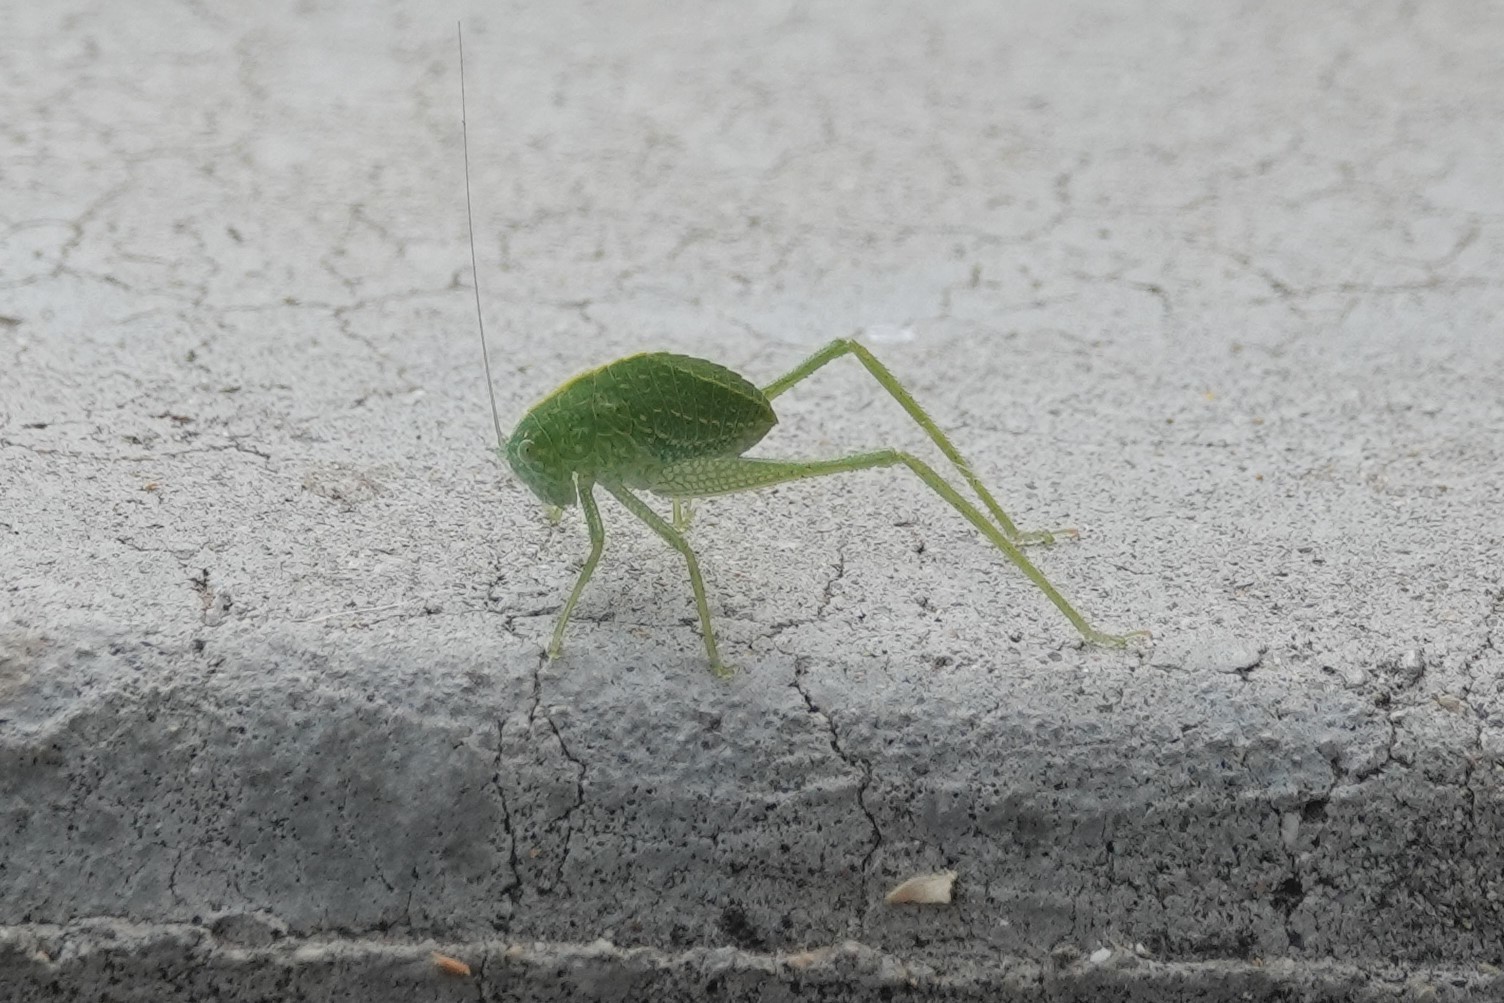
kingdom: Animalia
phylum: Arthropoda
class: Insecta
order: Orthoptera
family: Tettigoniidae
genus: Microcentrum
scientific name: Microcentrum
